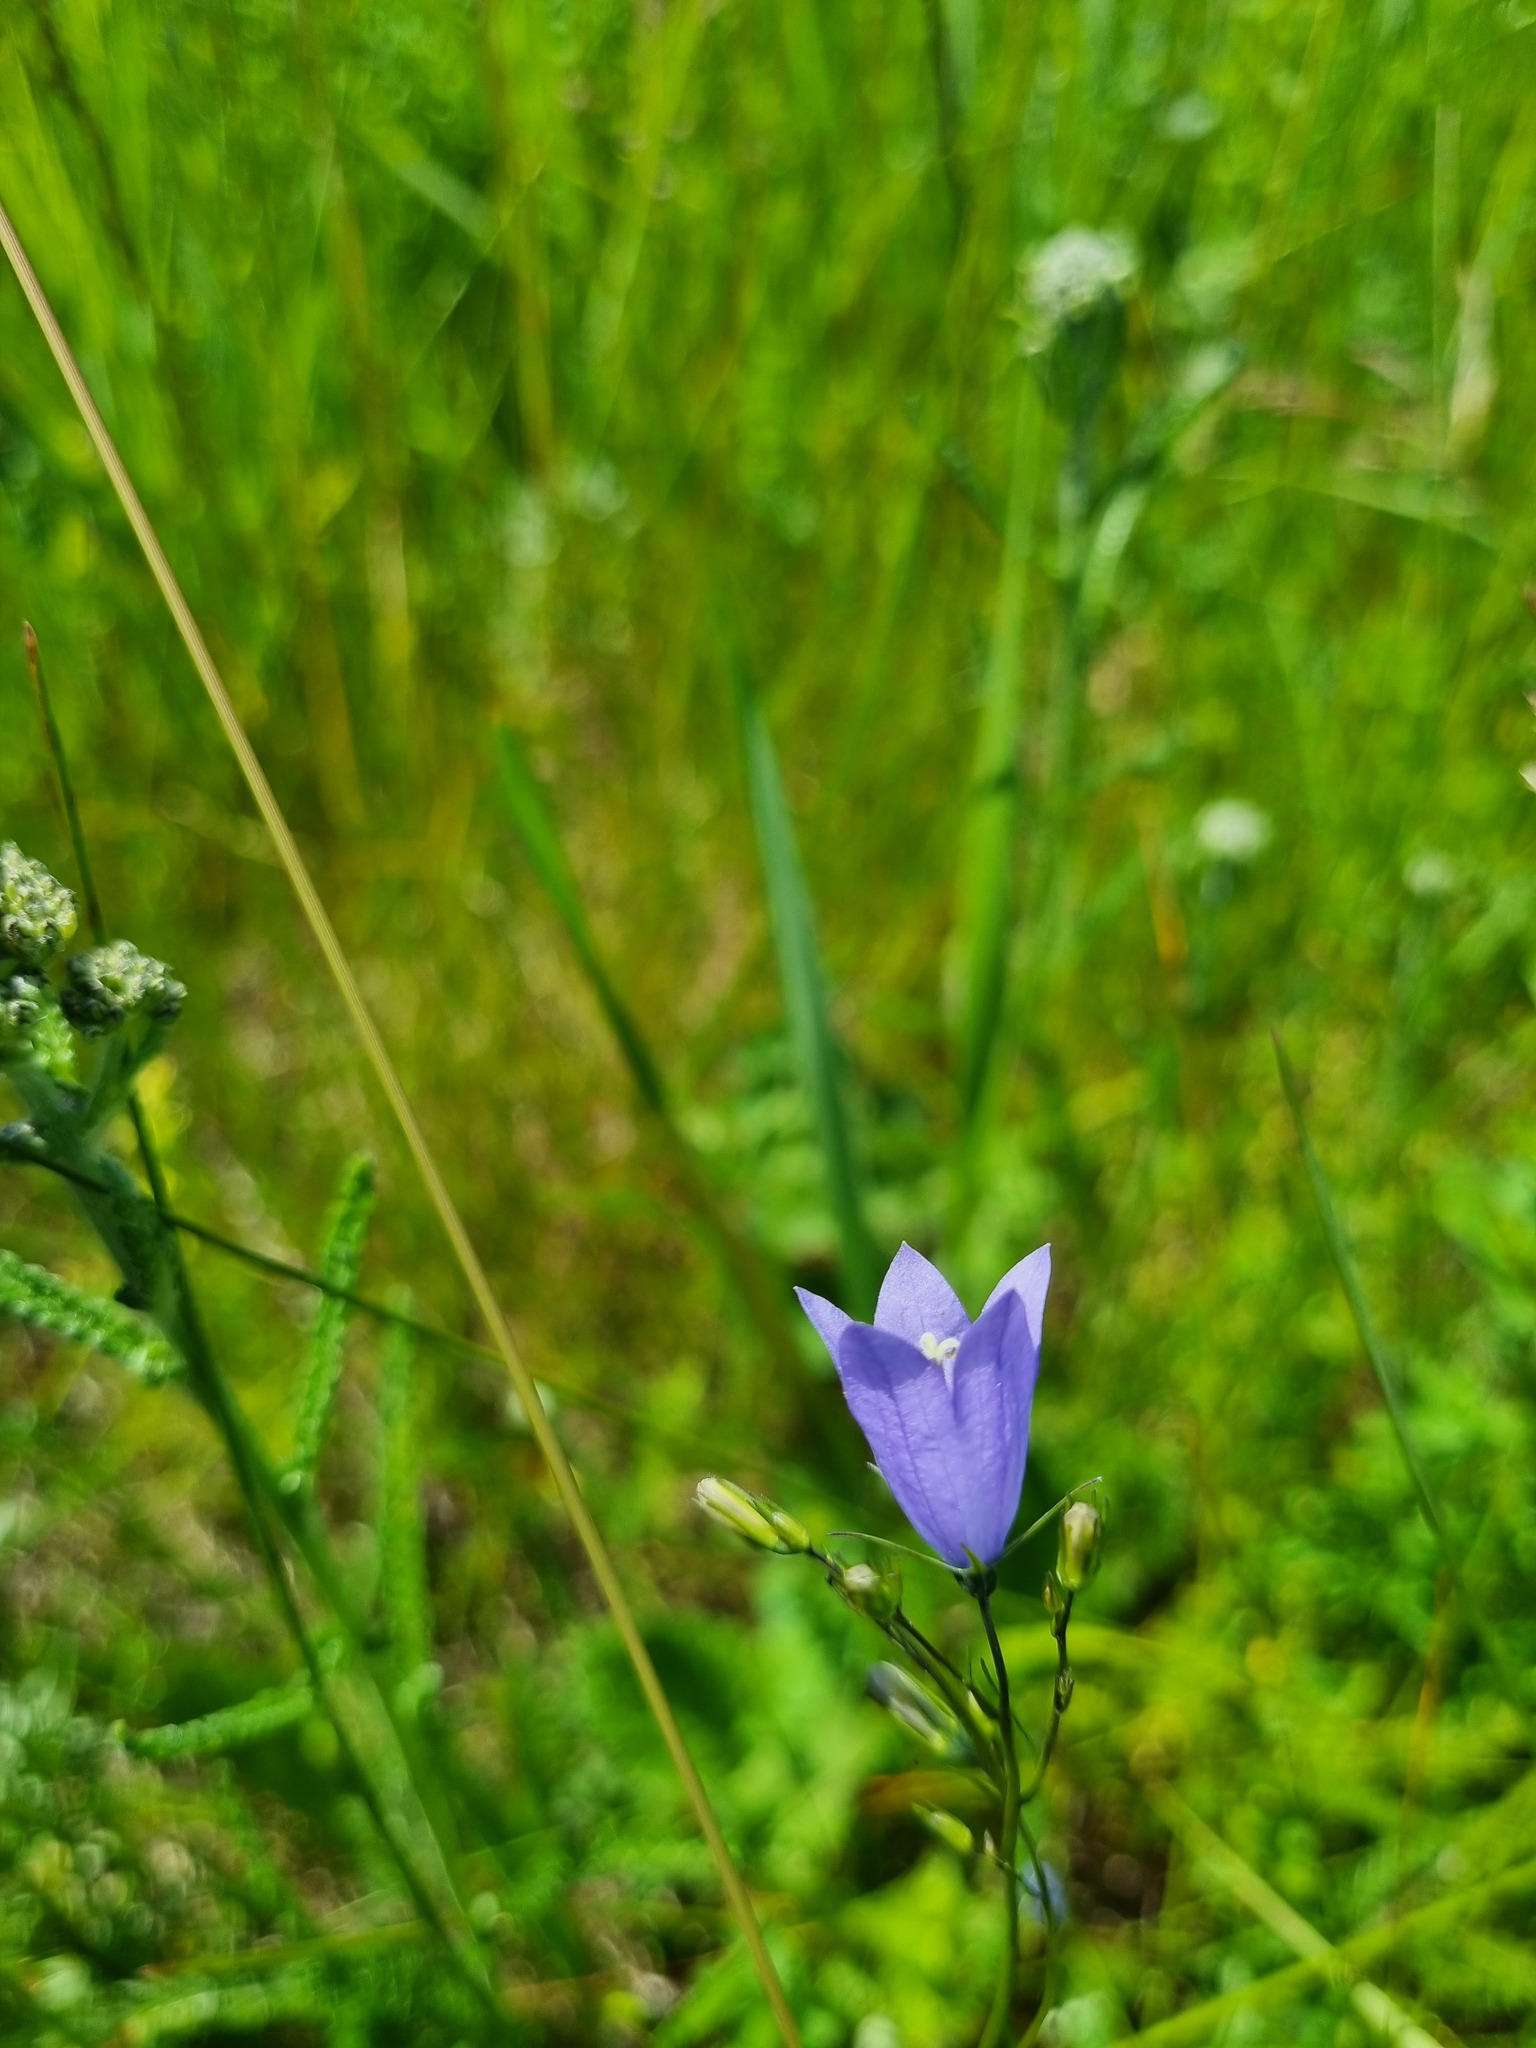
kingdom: Plantae
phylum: Tracheophyta
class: Magnoliopsida
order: Asterales
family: Campanulaceae
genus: Campanula
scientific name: Campanula rotundifolia
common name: Harebell
